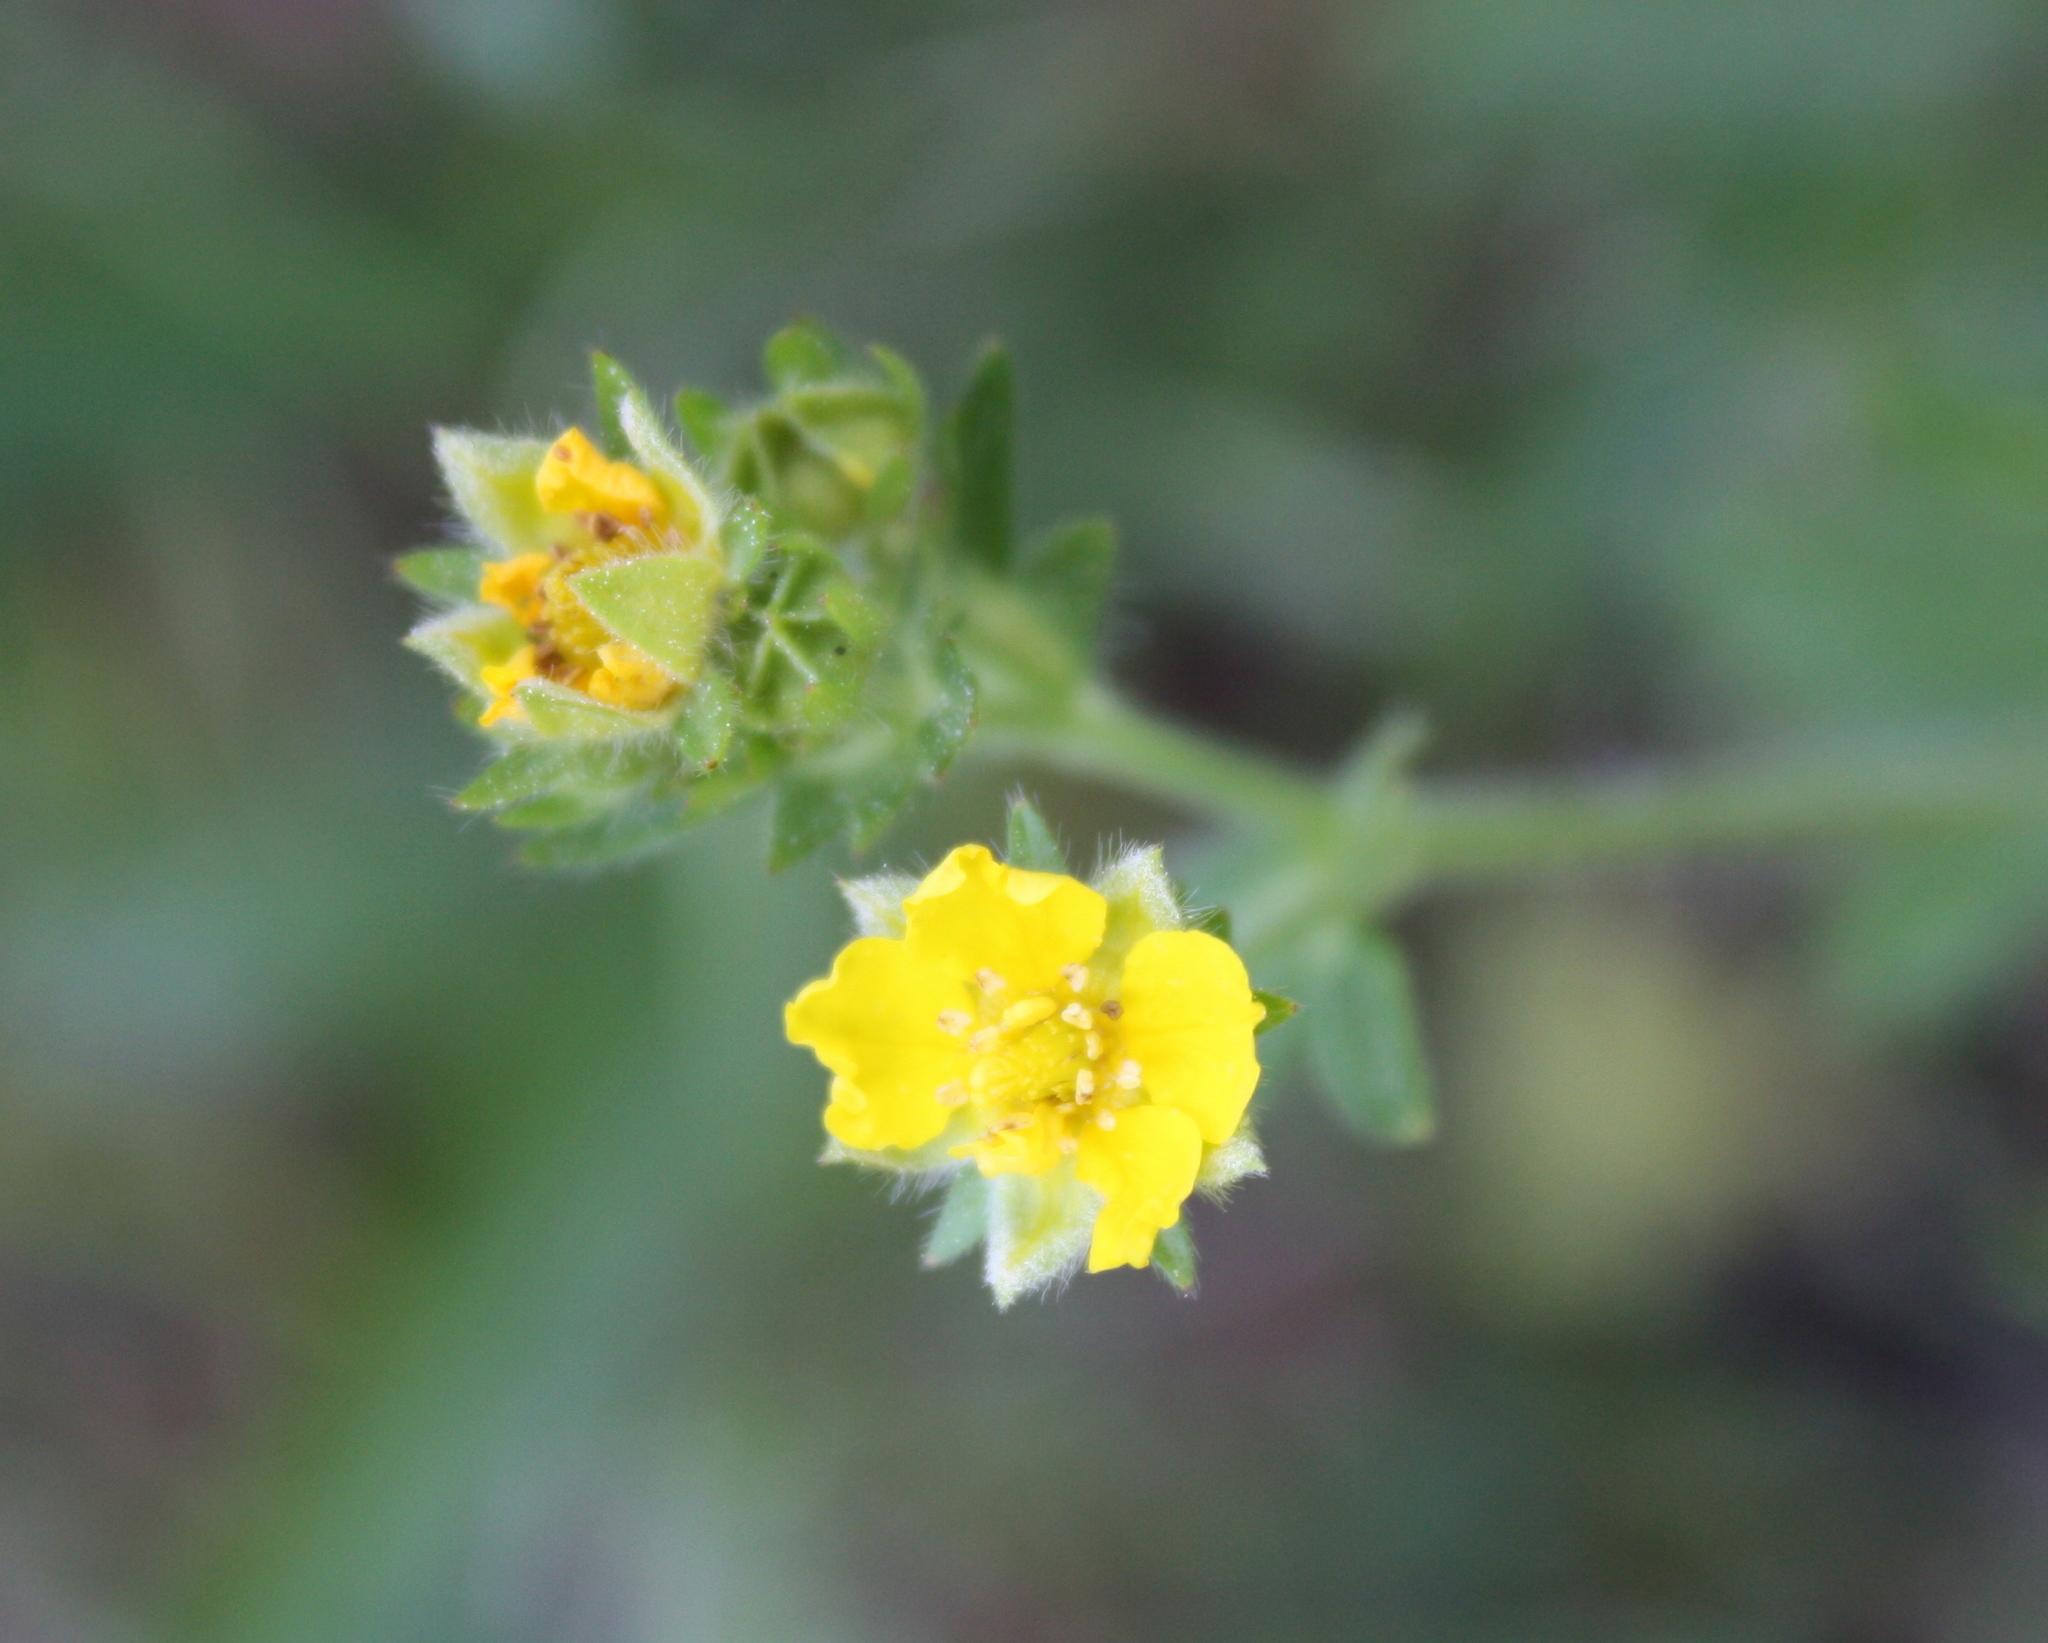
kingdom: Plantae
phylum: Tracheophyta
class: Magnoliopsida
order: Rosales
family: Rosaceae
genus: Potentilla
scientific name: Potentilla gracilis
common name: Graceful cinquefoil
